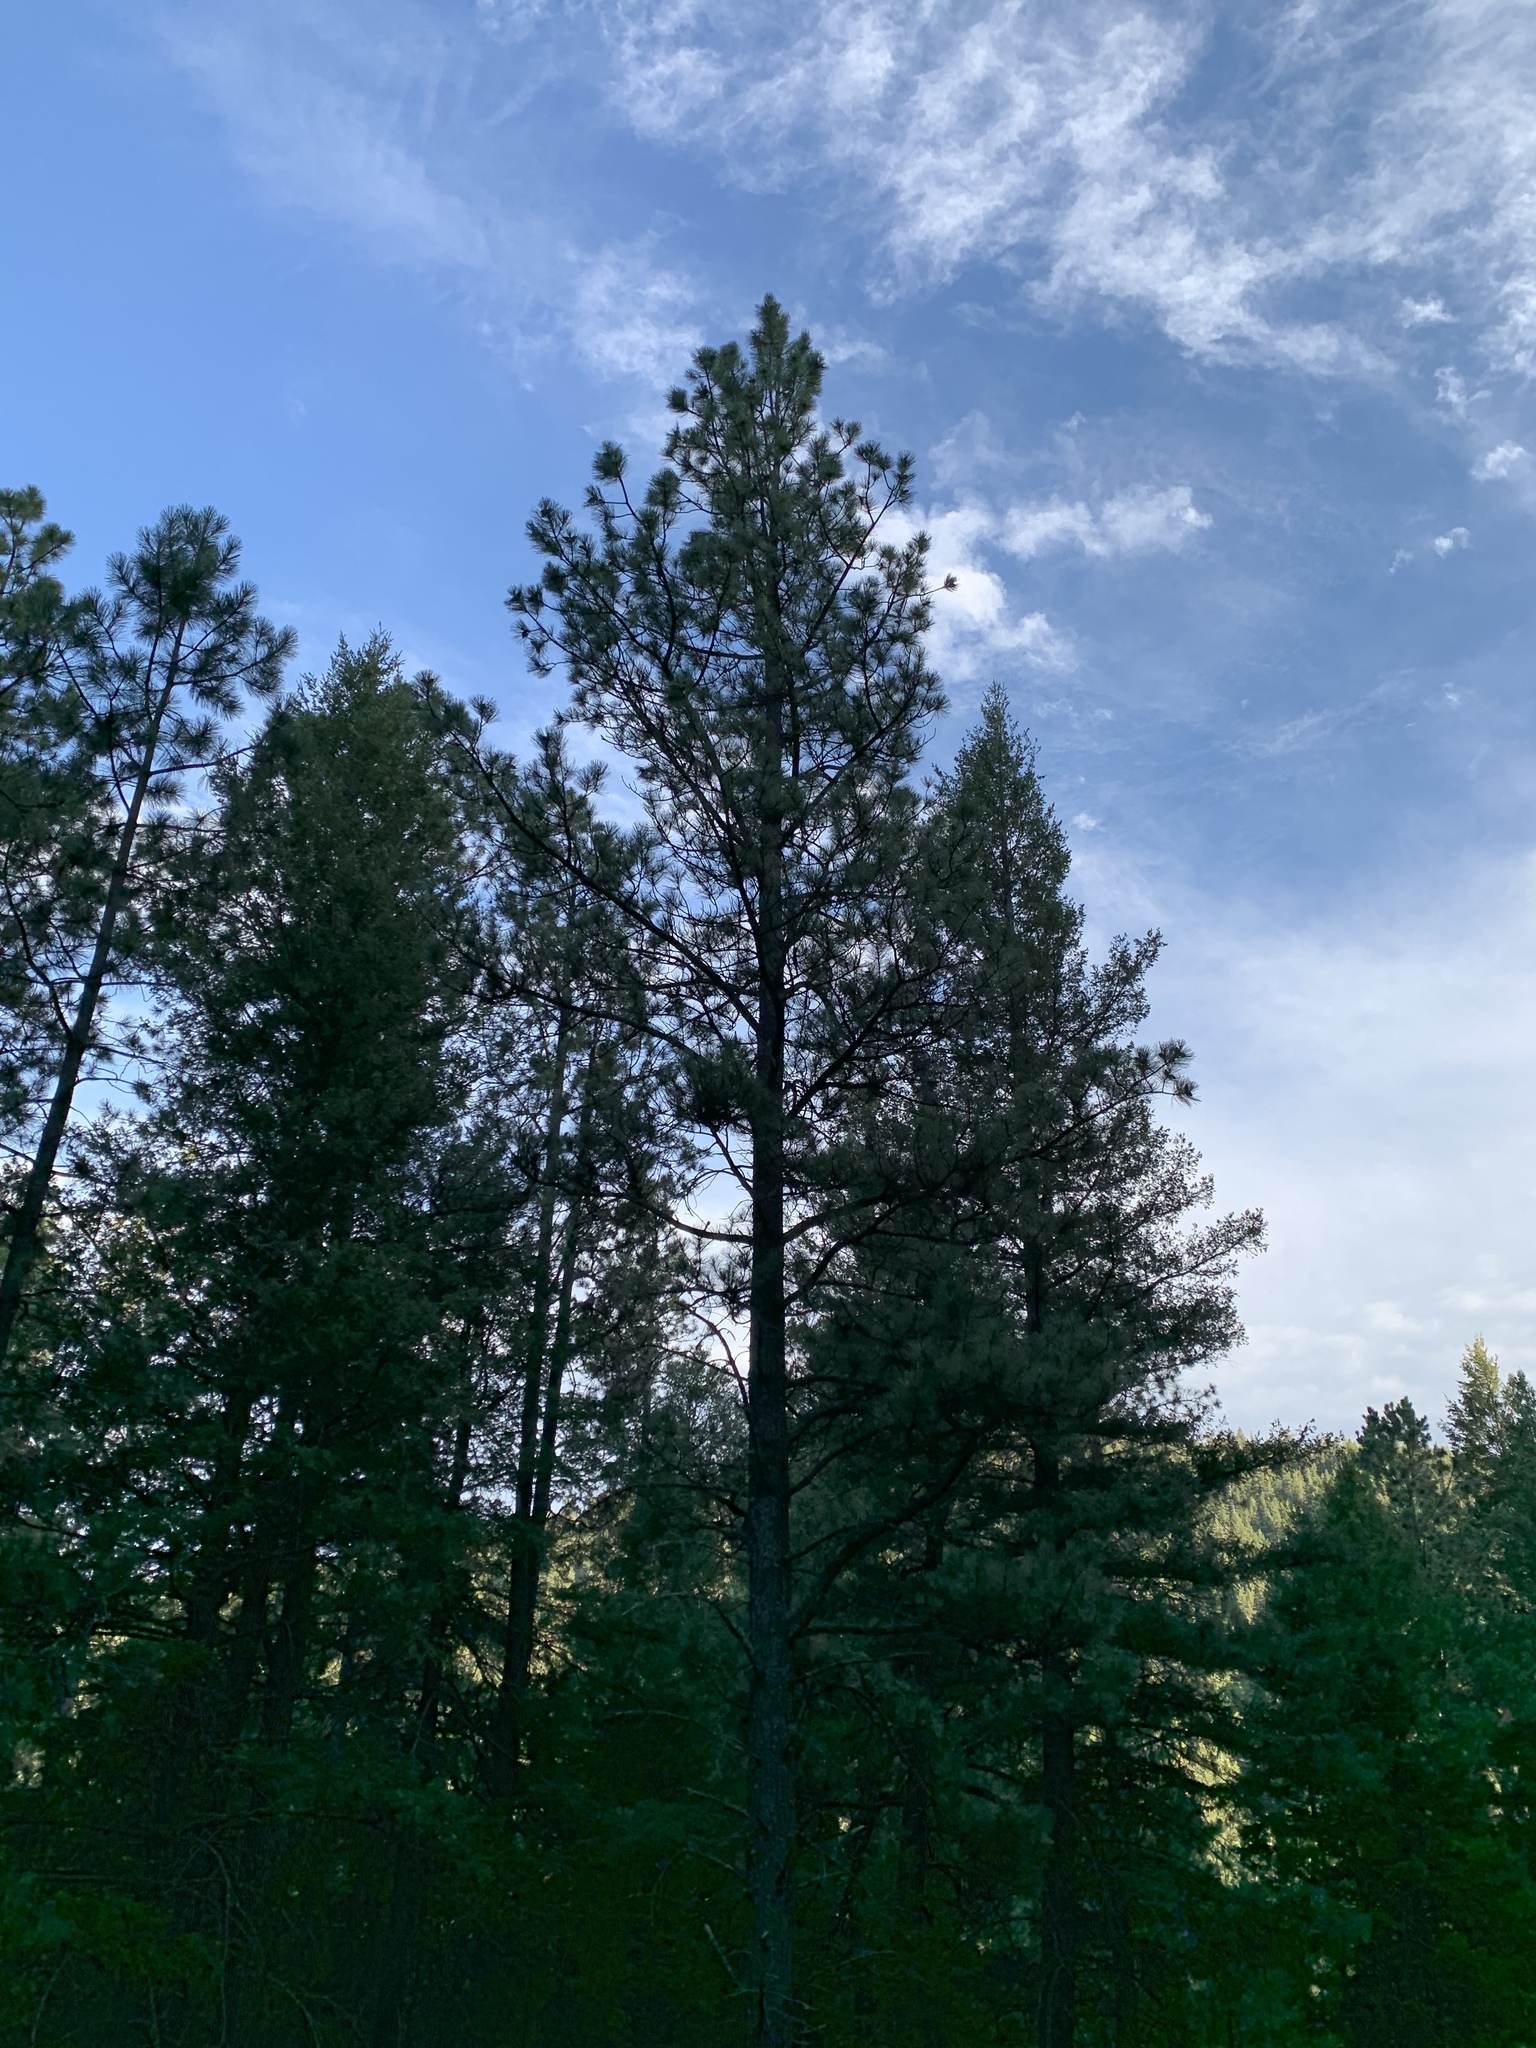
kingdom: Plantae
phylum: Tracheophyta
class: Pinopsida
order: Pinales
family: Pinaceae
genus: Pinus
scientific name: Pinus ponderosa
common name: Western yellow-pine
